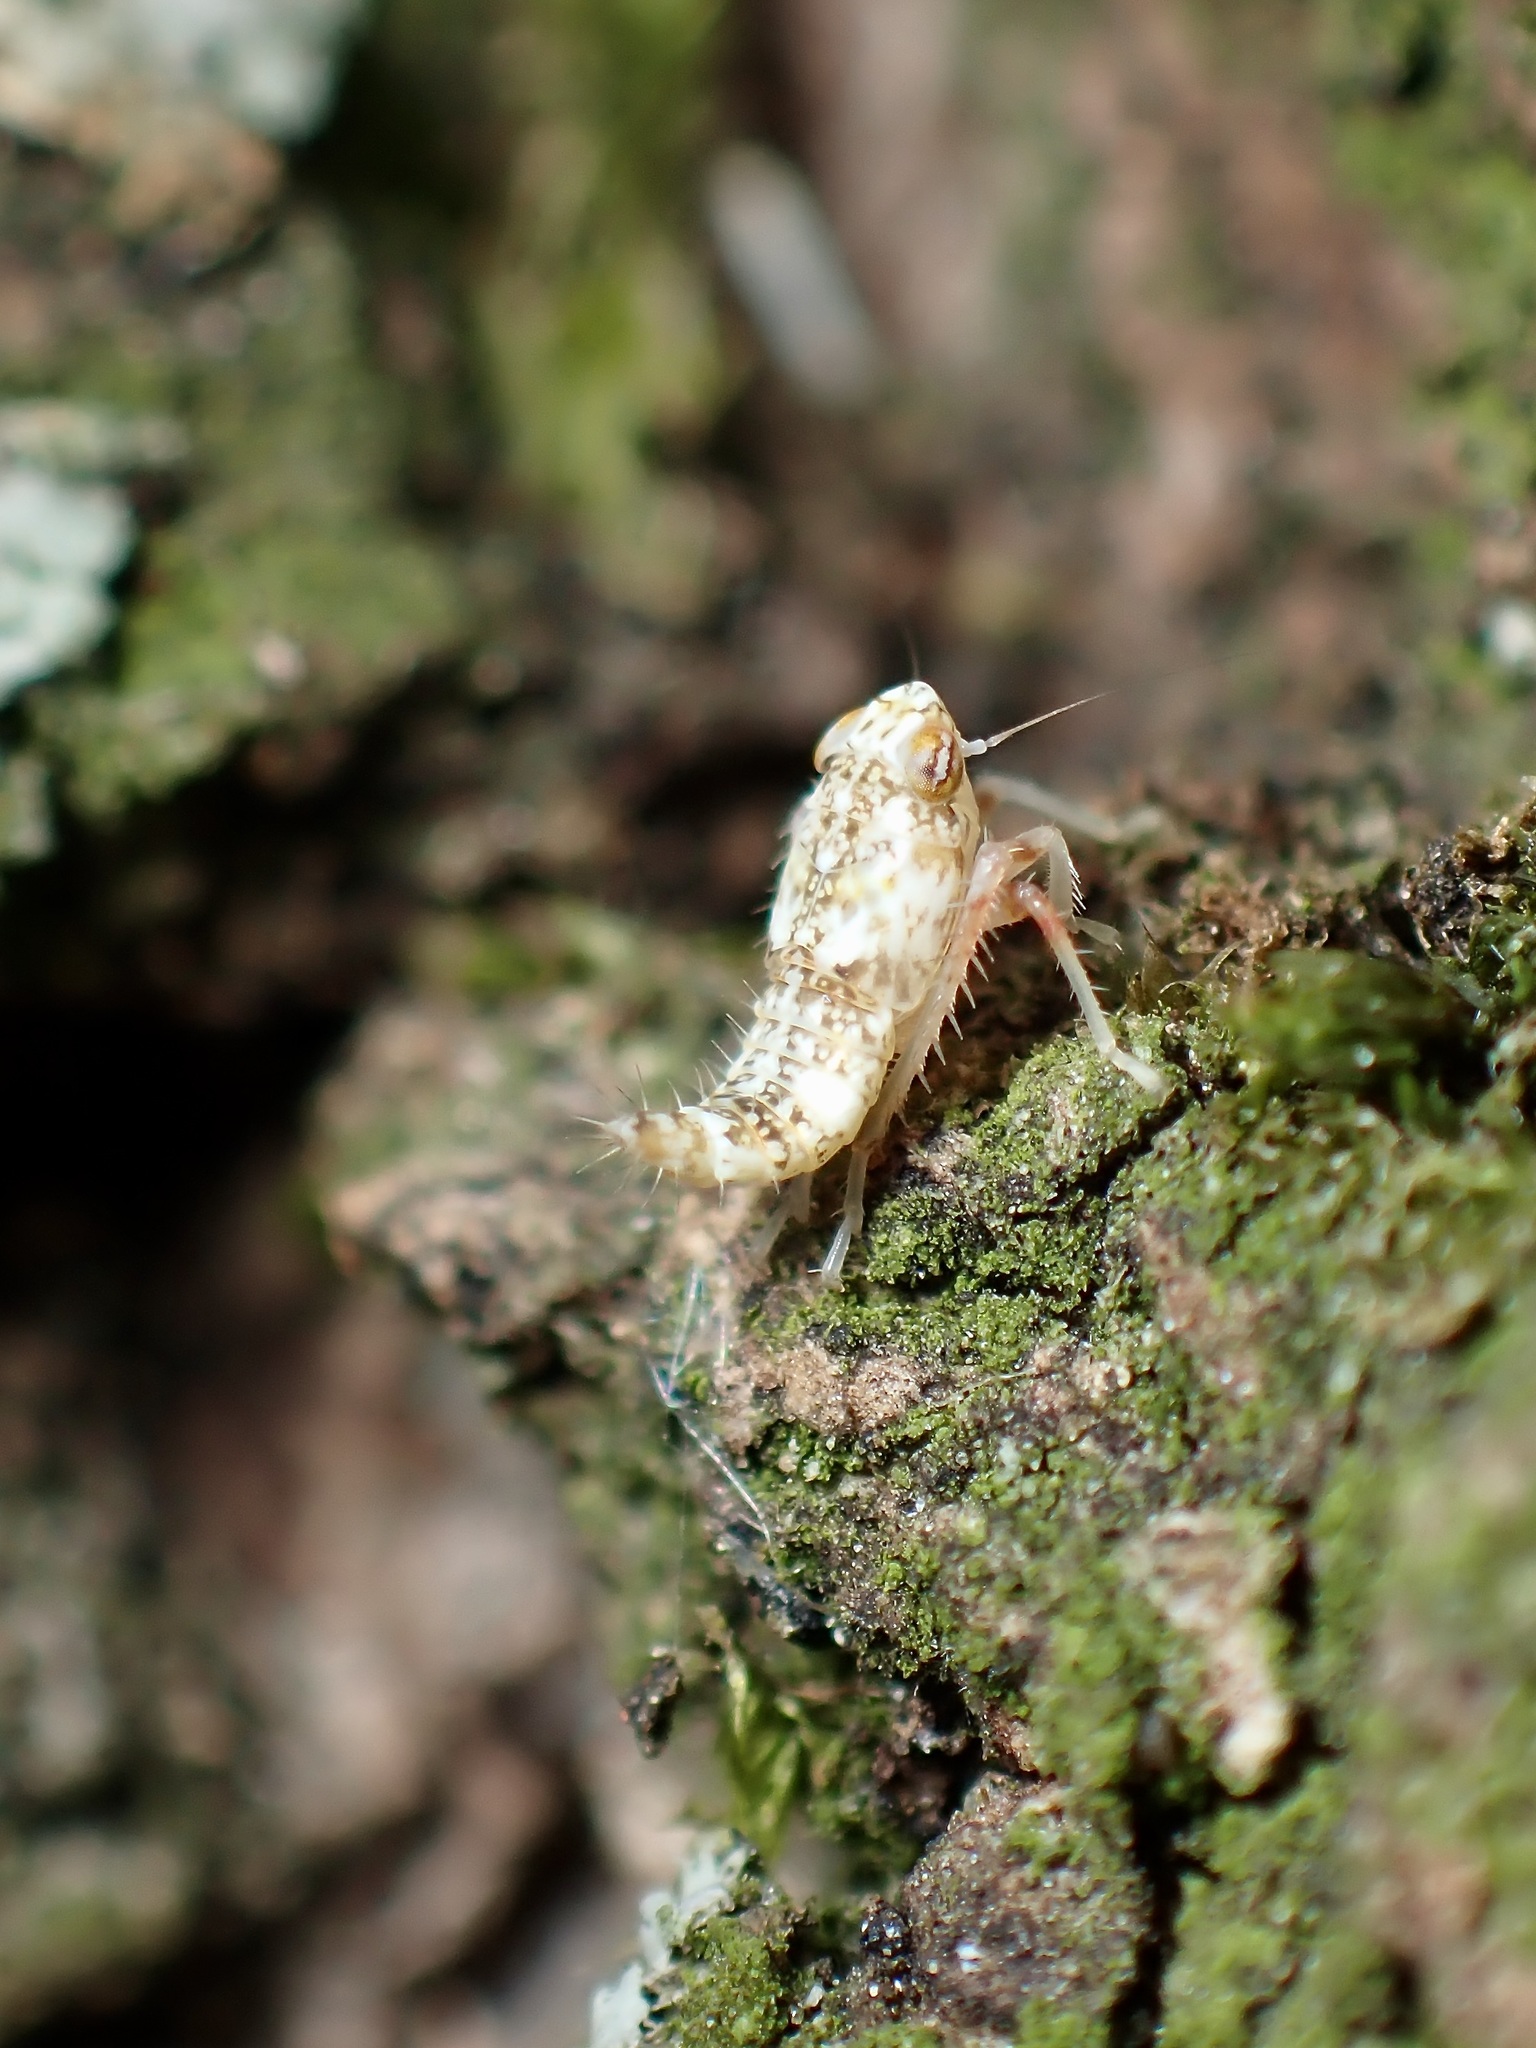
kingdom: Animalia
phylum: Arthropoda
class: Insecta
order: Hemiptera
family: Cicadellidae
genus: Orientus
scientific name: Orientus ishidae
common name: Japanese leafhopper
